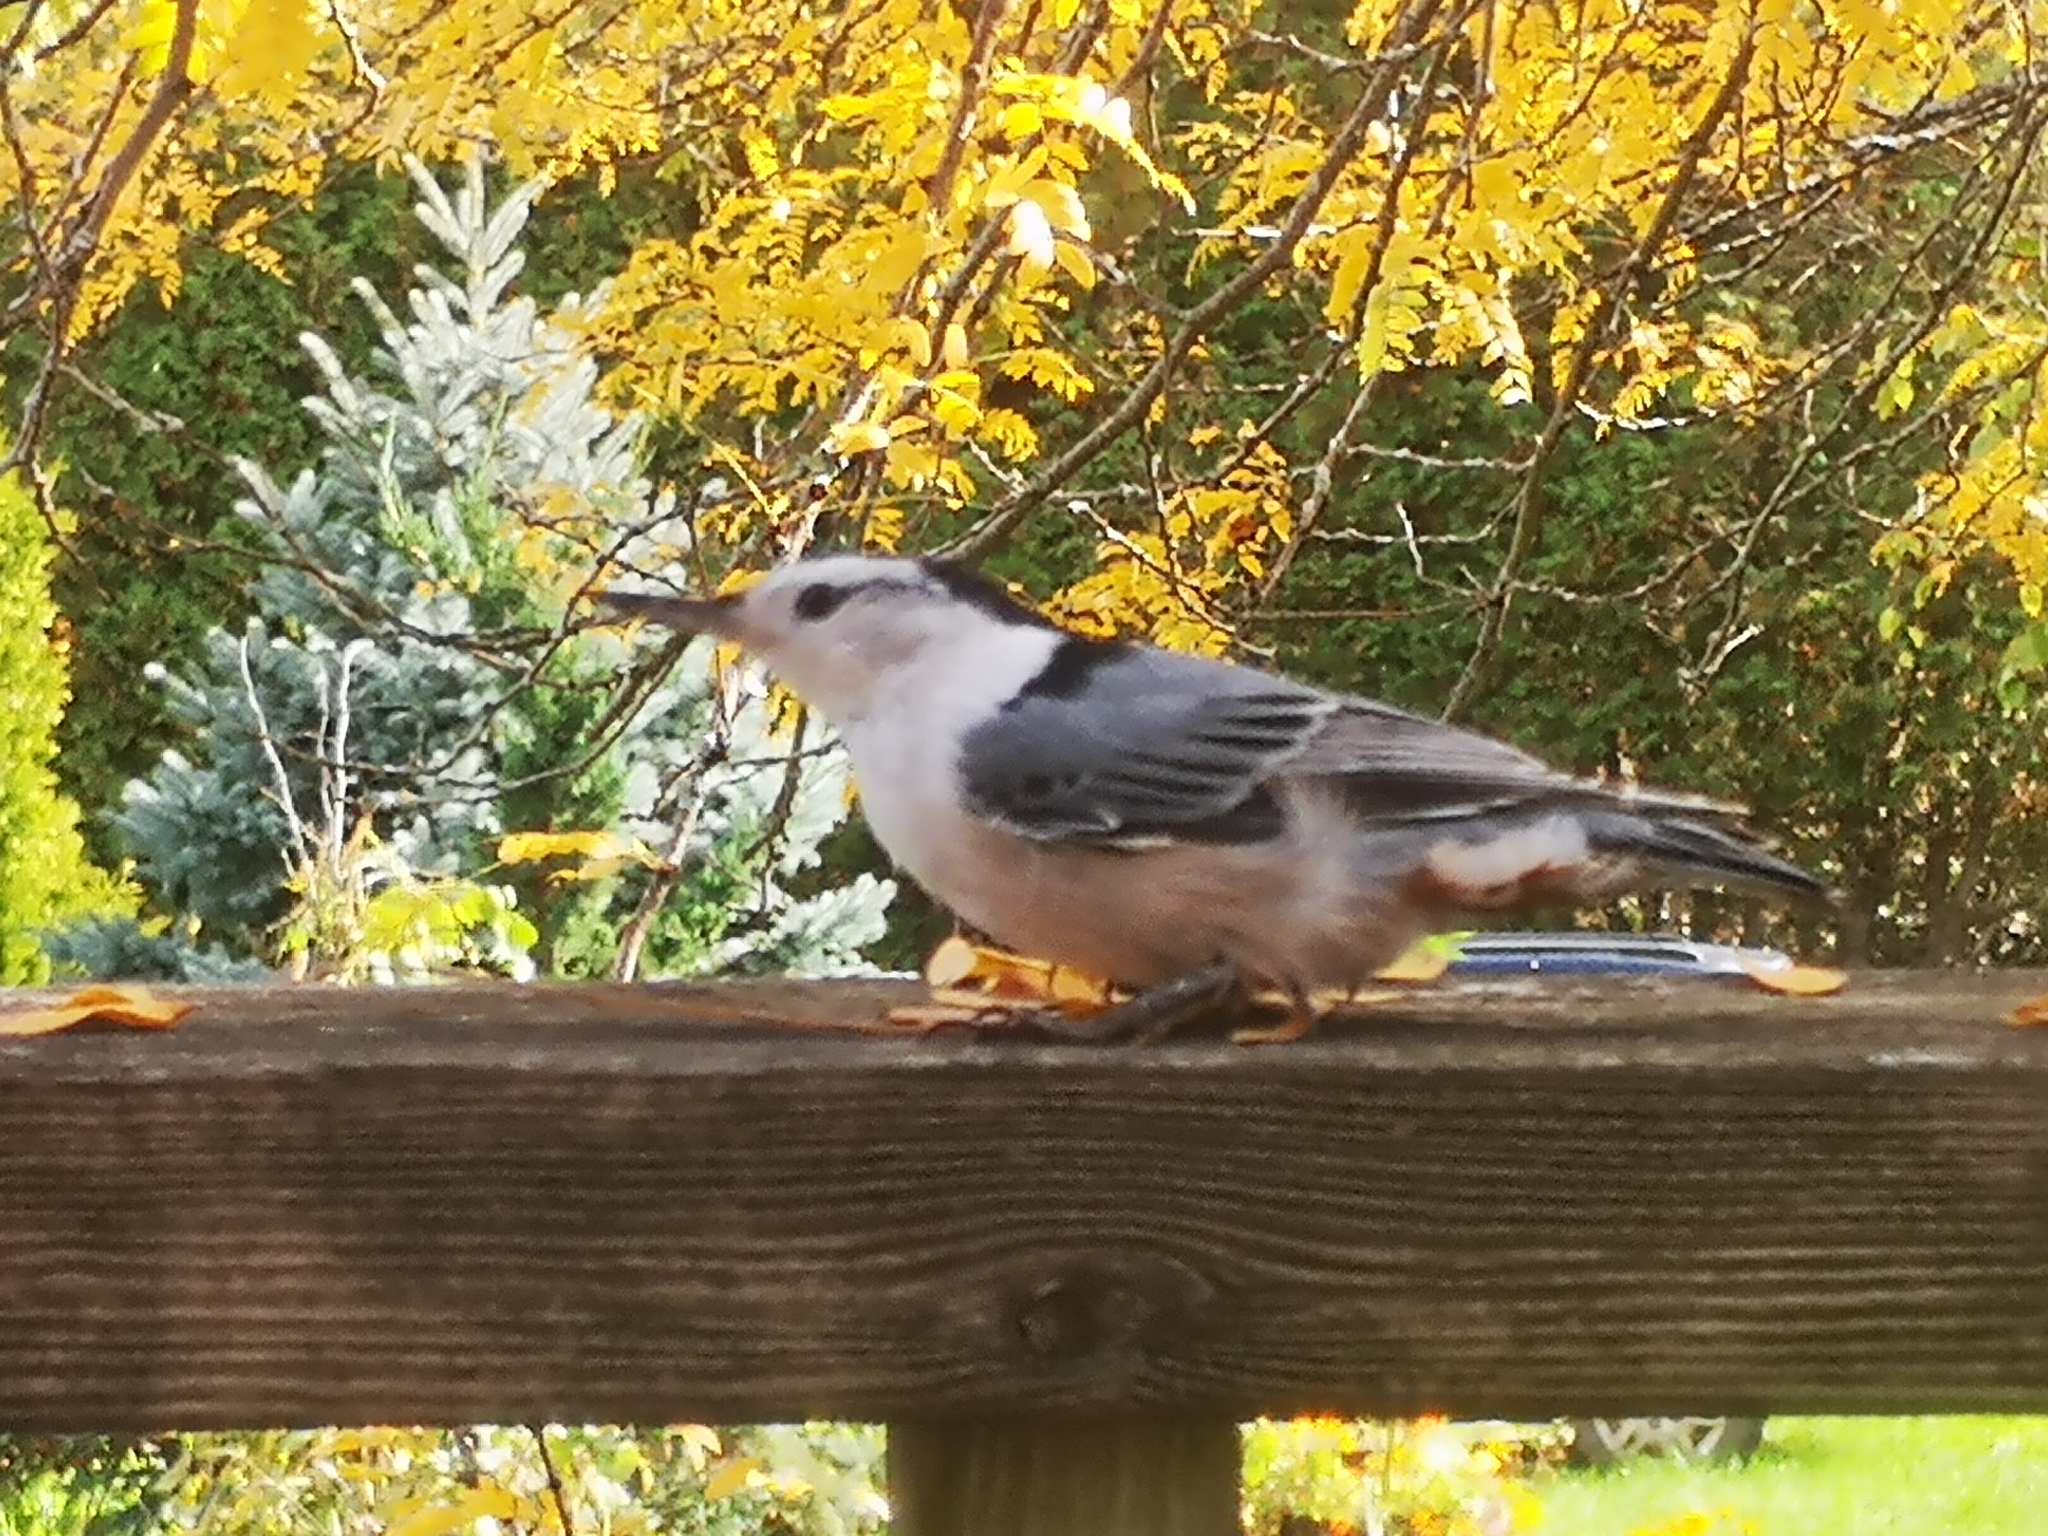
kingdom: Animalia
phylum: Chordata
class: Aves
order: Passeriformes
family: Sittidae
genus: Sitta
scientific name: Sitta carolinensis
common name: White-breasted nuthatch
